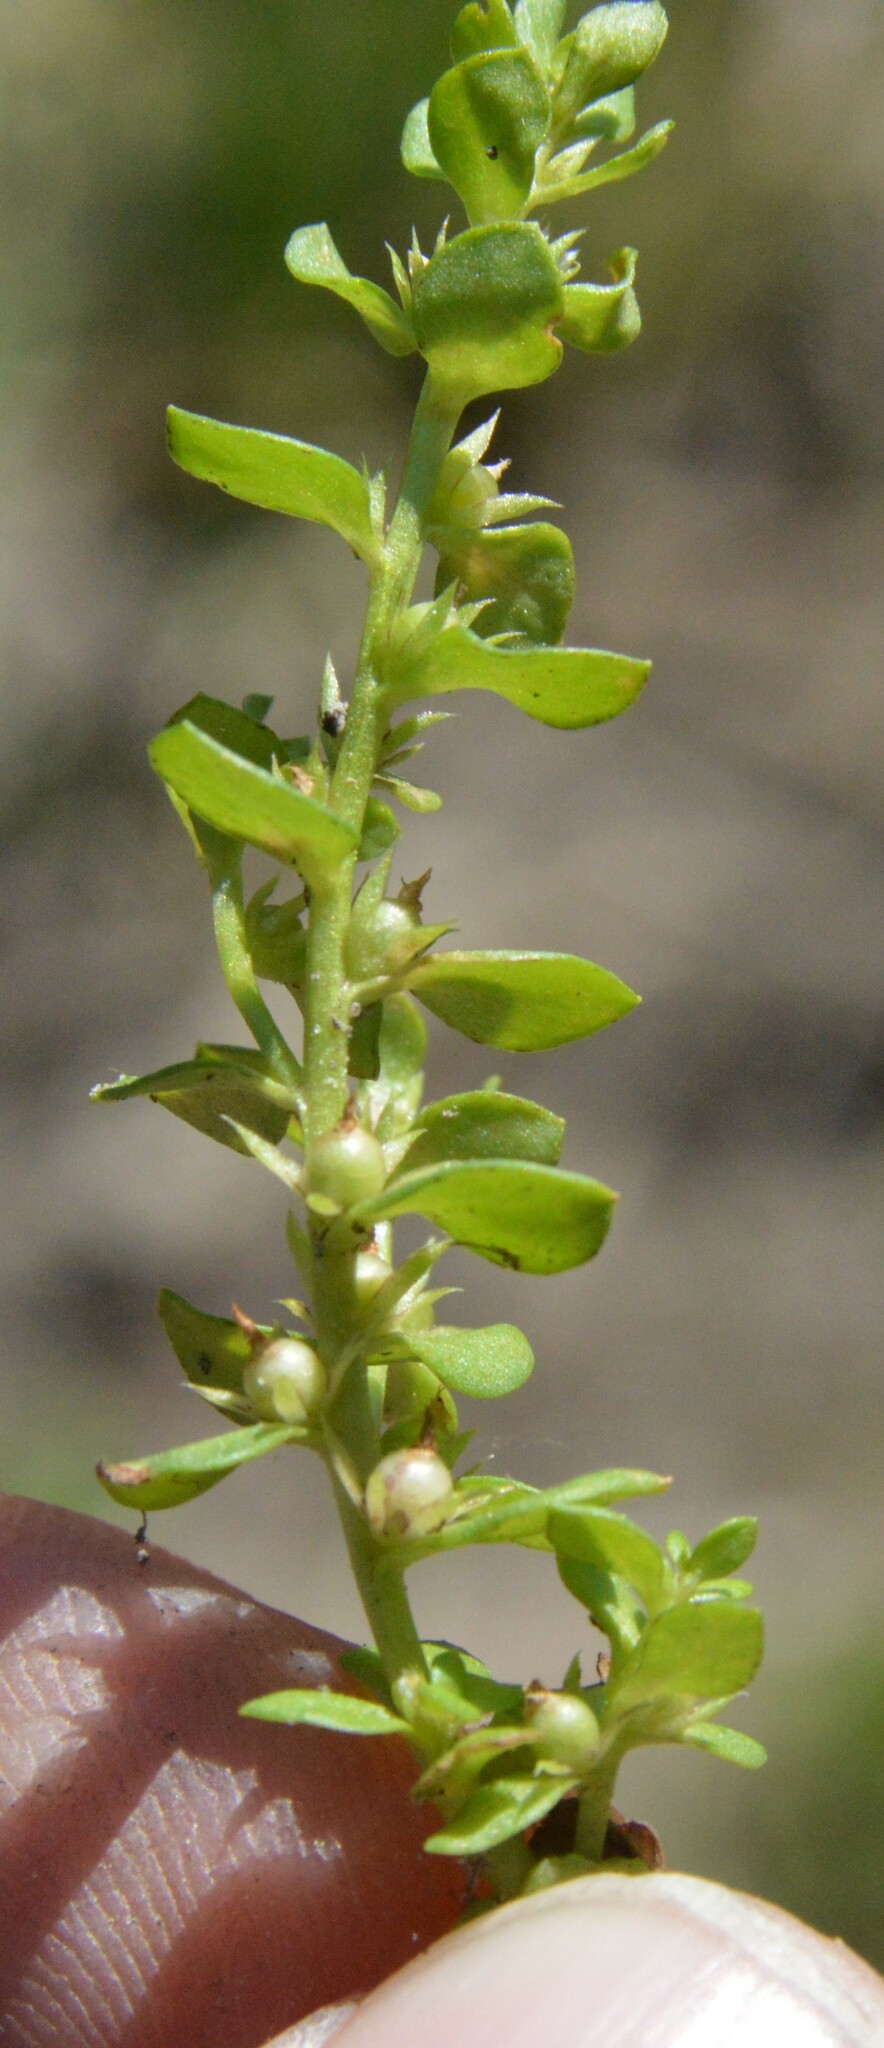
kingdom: Plantae
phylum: Tracheophyta
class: Magnoliopsida
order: Ericales
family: Primulaceae
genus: Lysimachia
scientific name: Lysimachia minima
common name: Chaffweed
